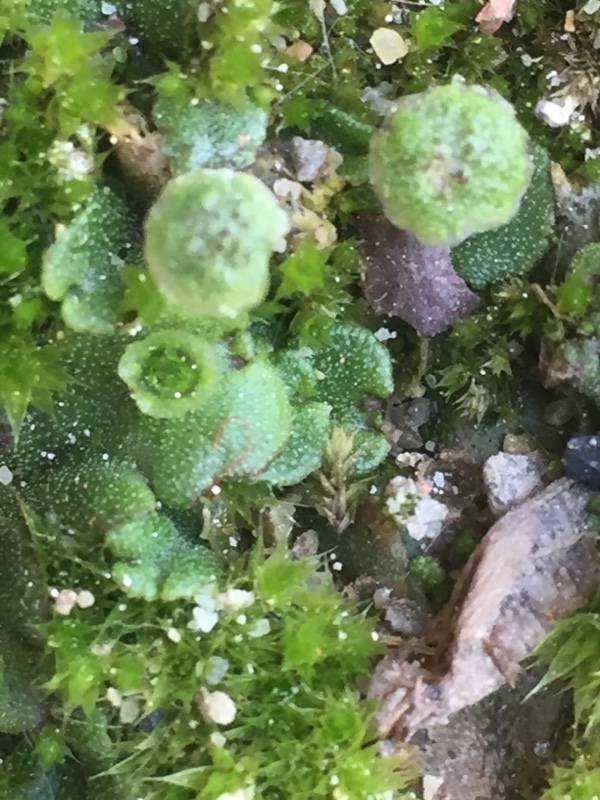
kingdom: Plantae
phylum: Marchantiophyta
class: Marchantiopsida
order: Marchantiales
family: Marchantiaceae
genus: Marchantia
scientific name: Marchantia polymorpha
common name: Common liverwort
